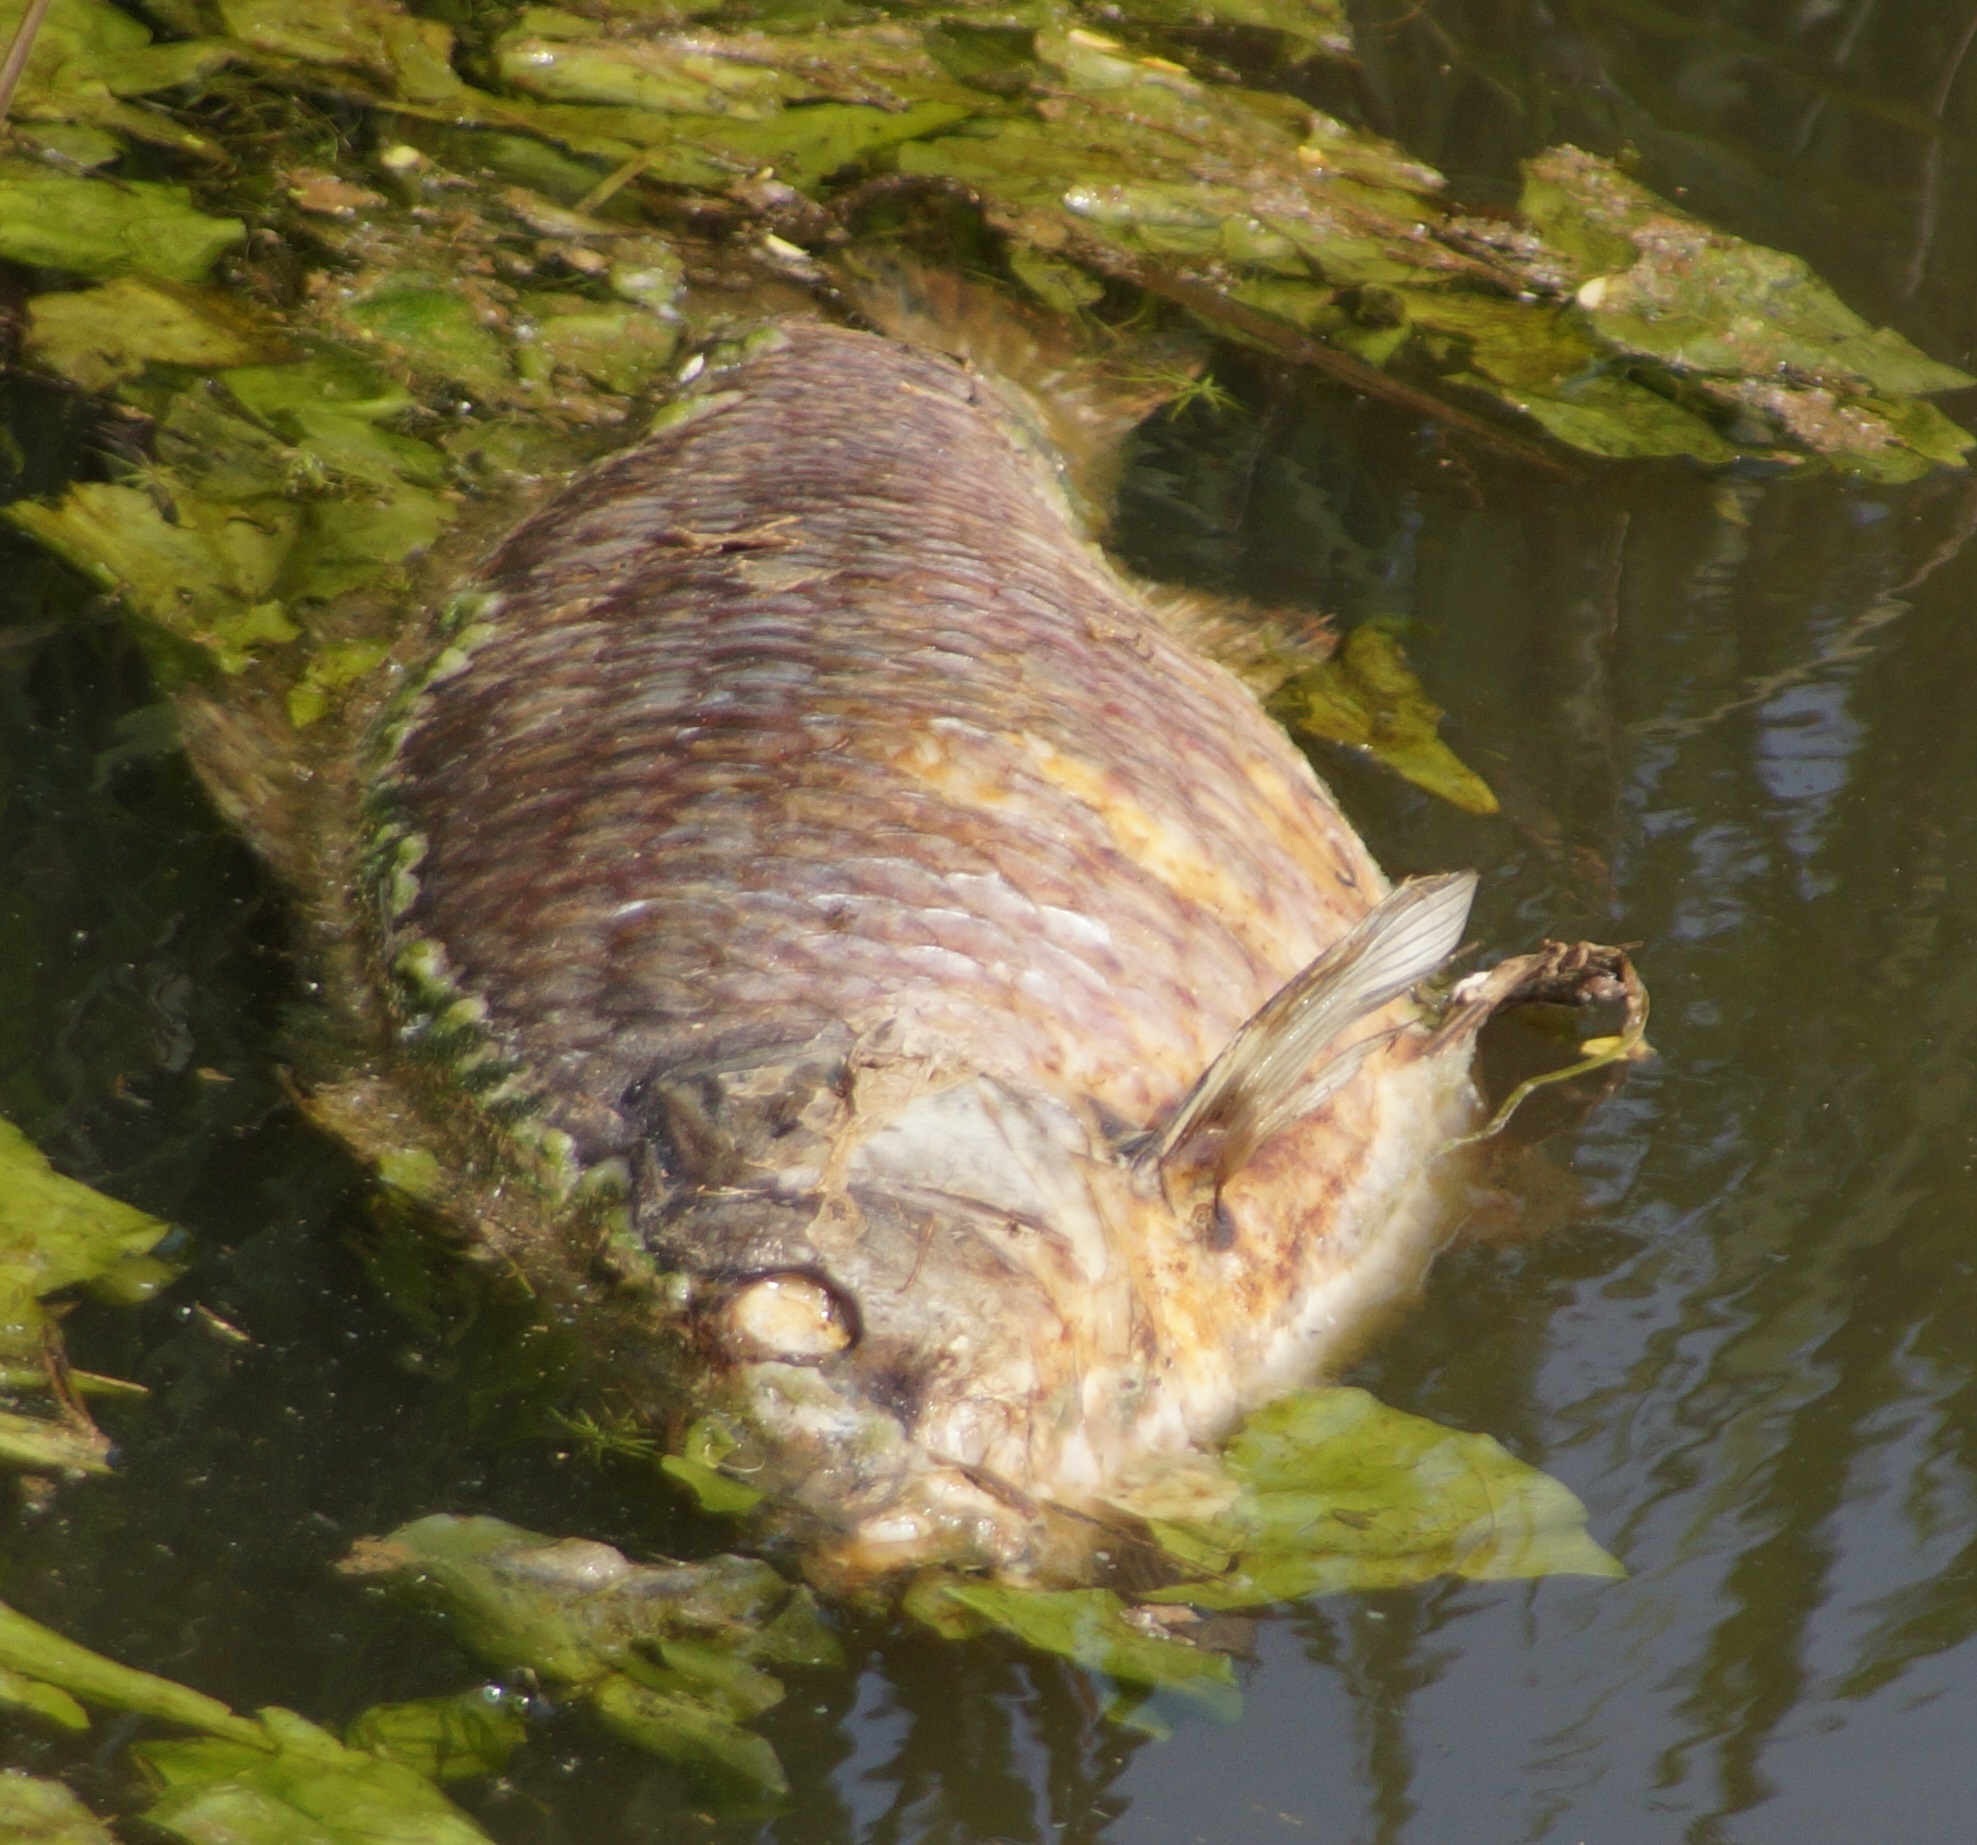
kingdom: Animalia
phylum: Chordata
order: Cypriniformes
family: Cyprinidae
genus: Cyprinus
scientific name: Cyprinus carpio
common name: Common carp
